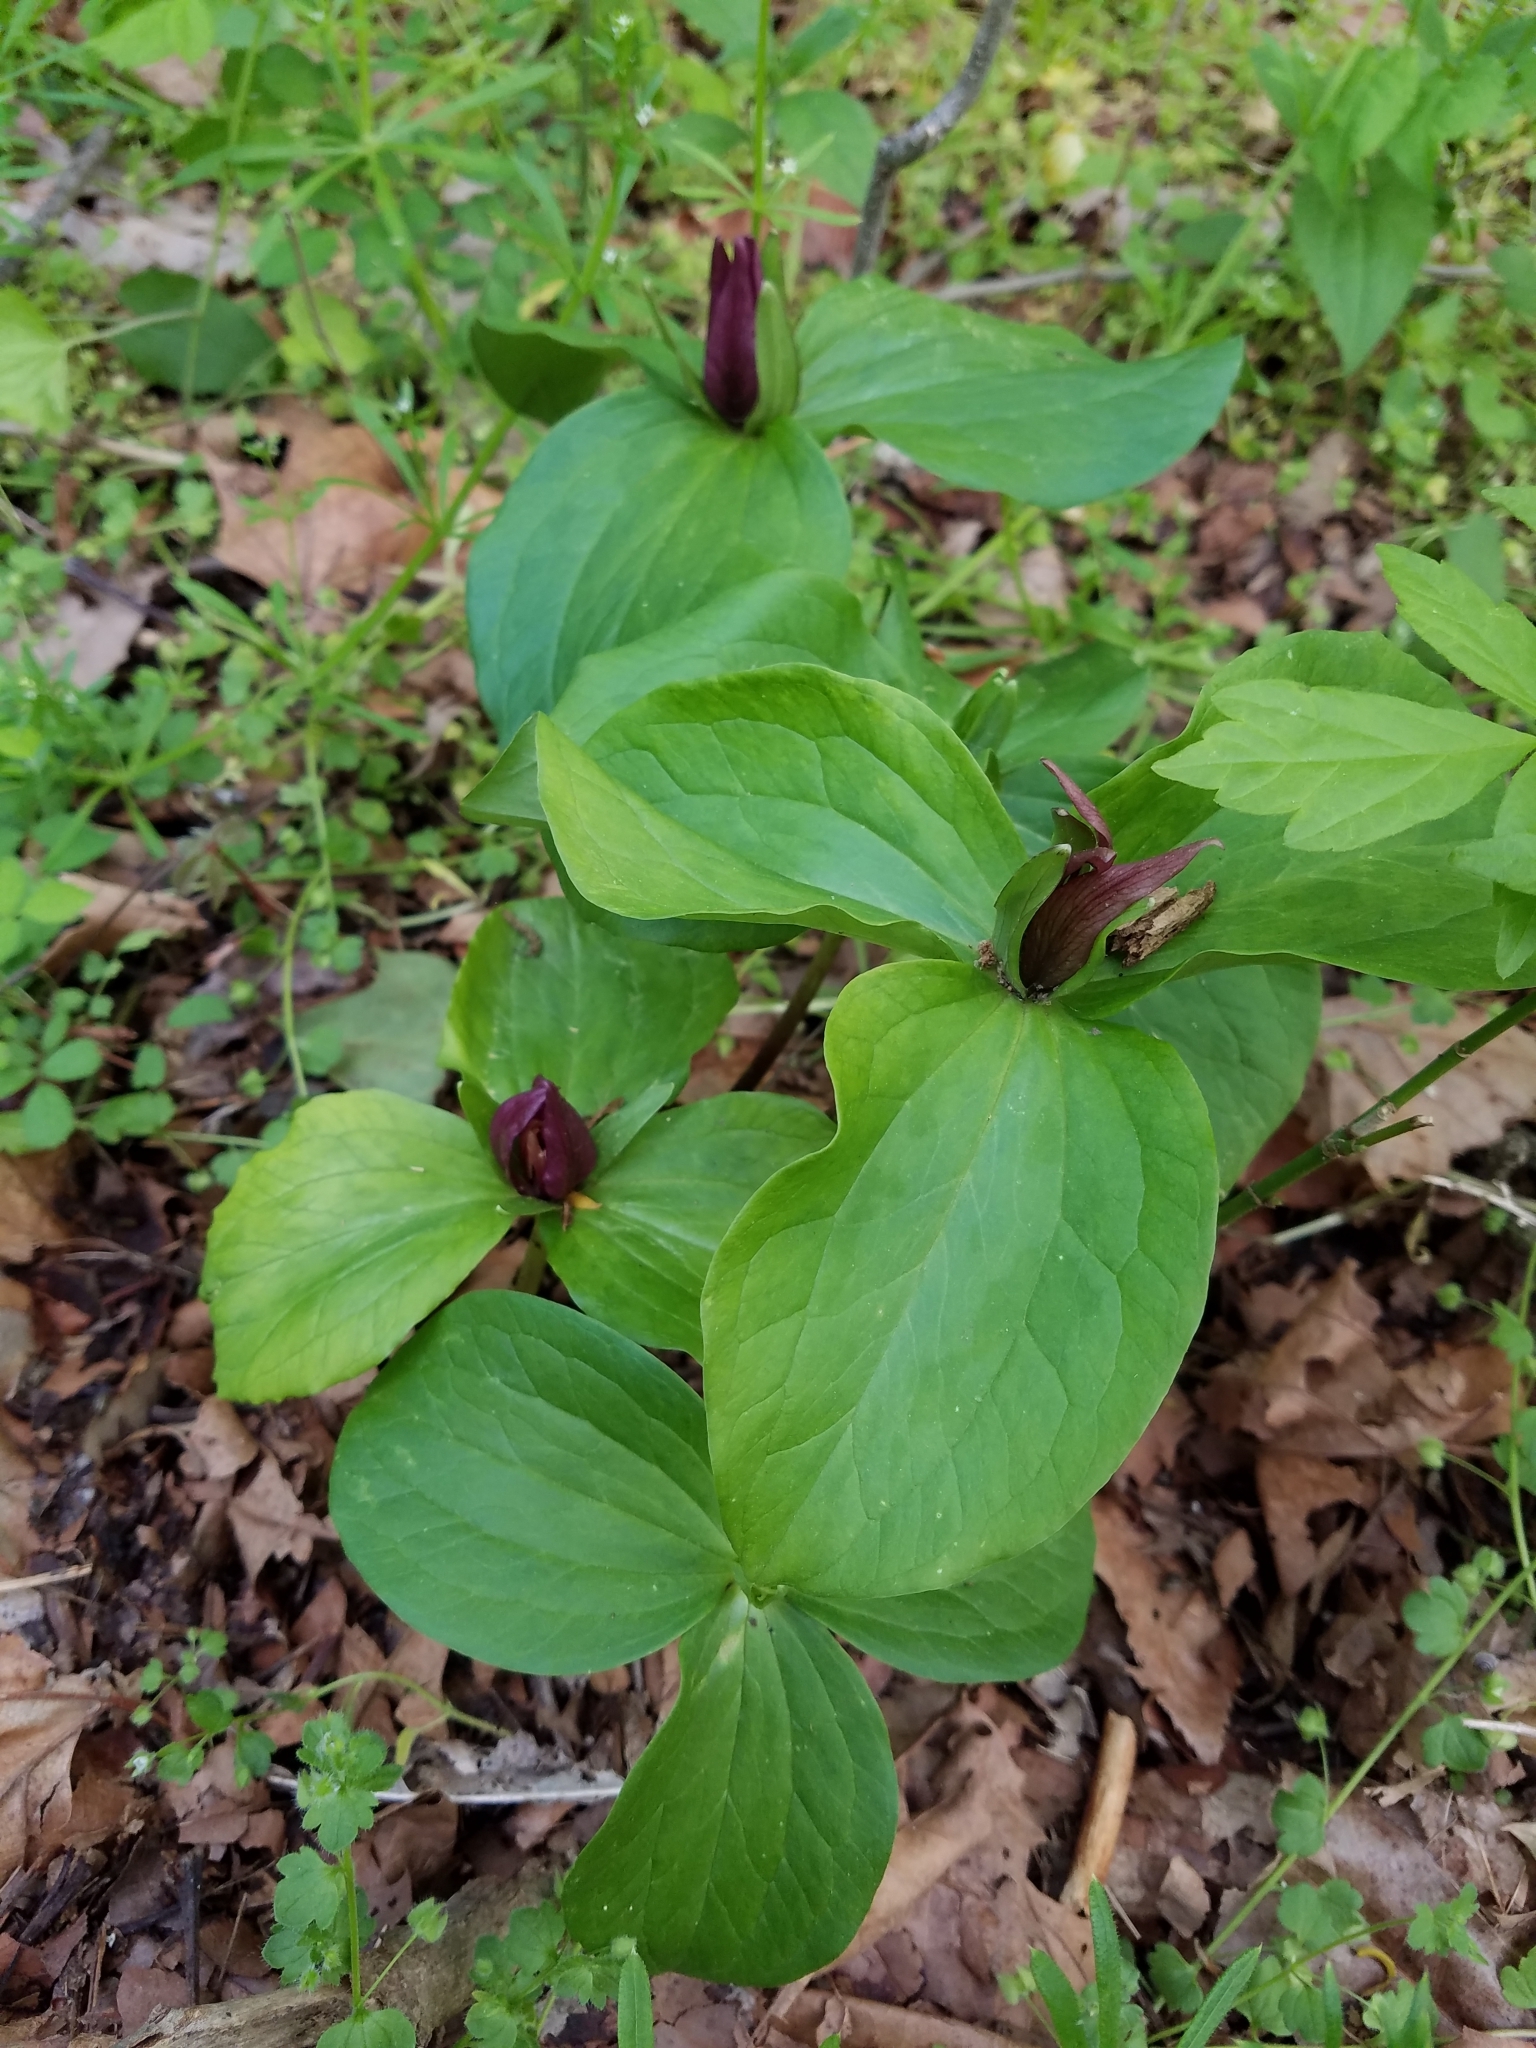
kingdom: Plantae
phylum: Tracheophyta
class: Liliopsida
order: Liliales
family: Melanthiaceae
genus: Trillium
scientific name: Trillium sessile
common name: Sessile trillium
